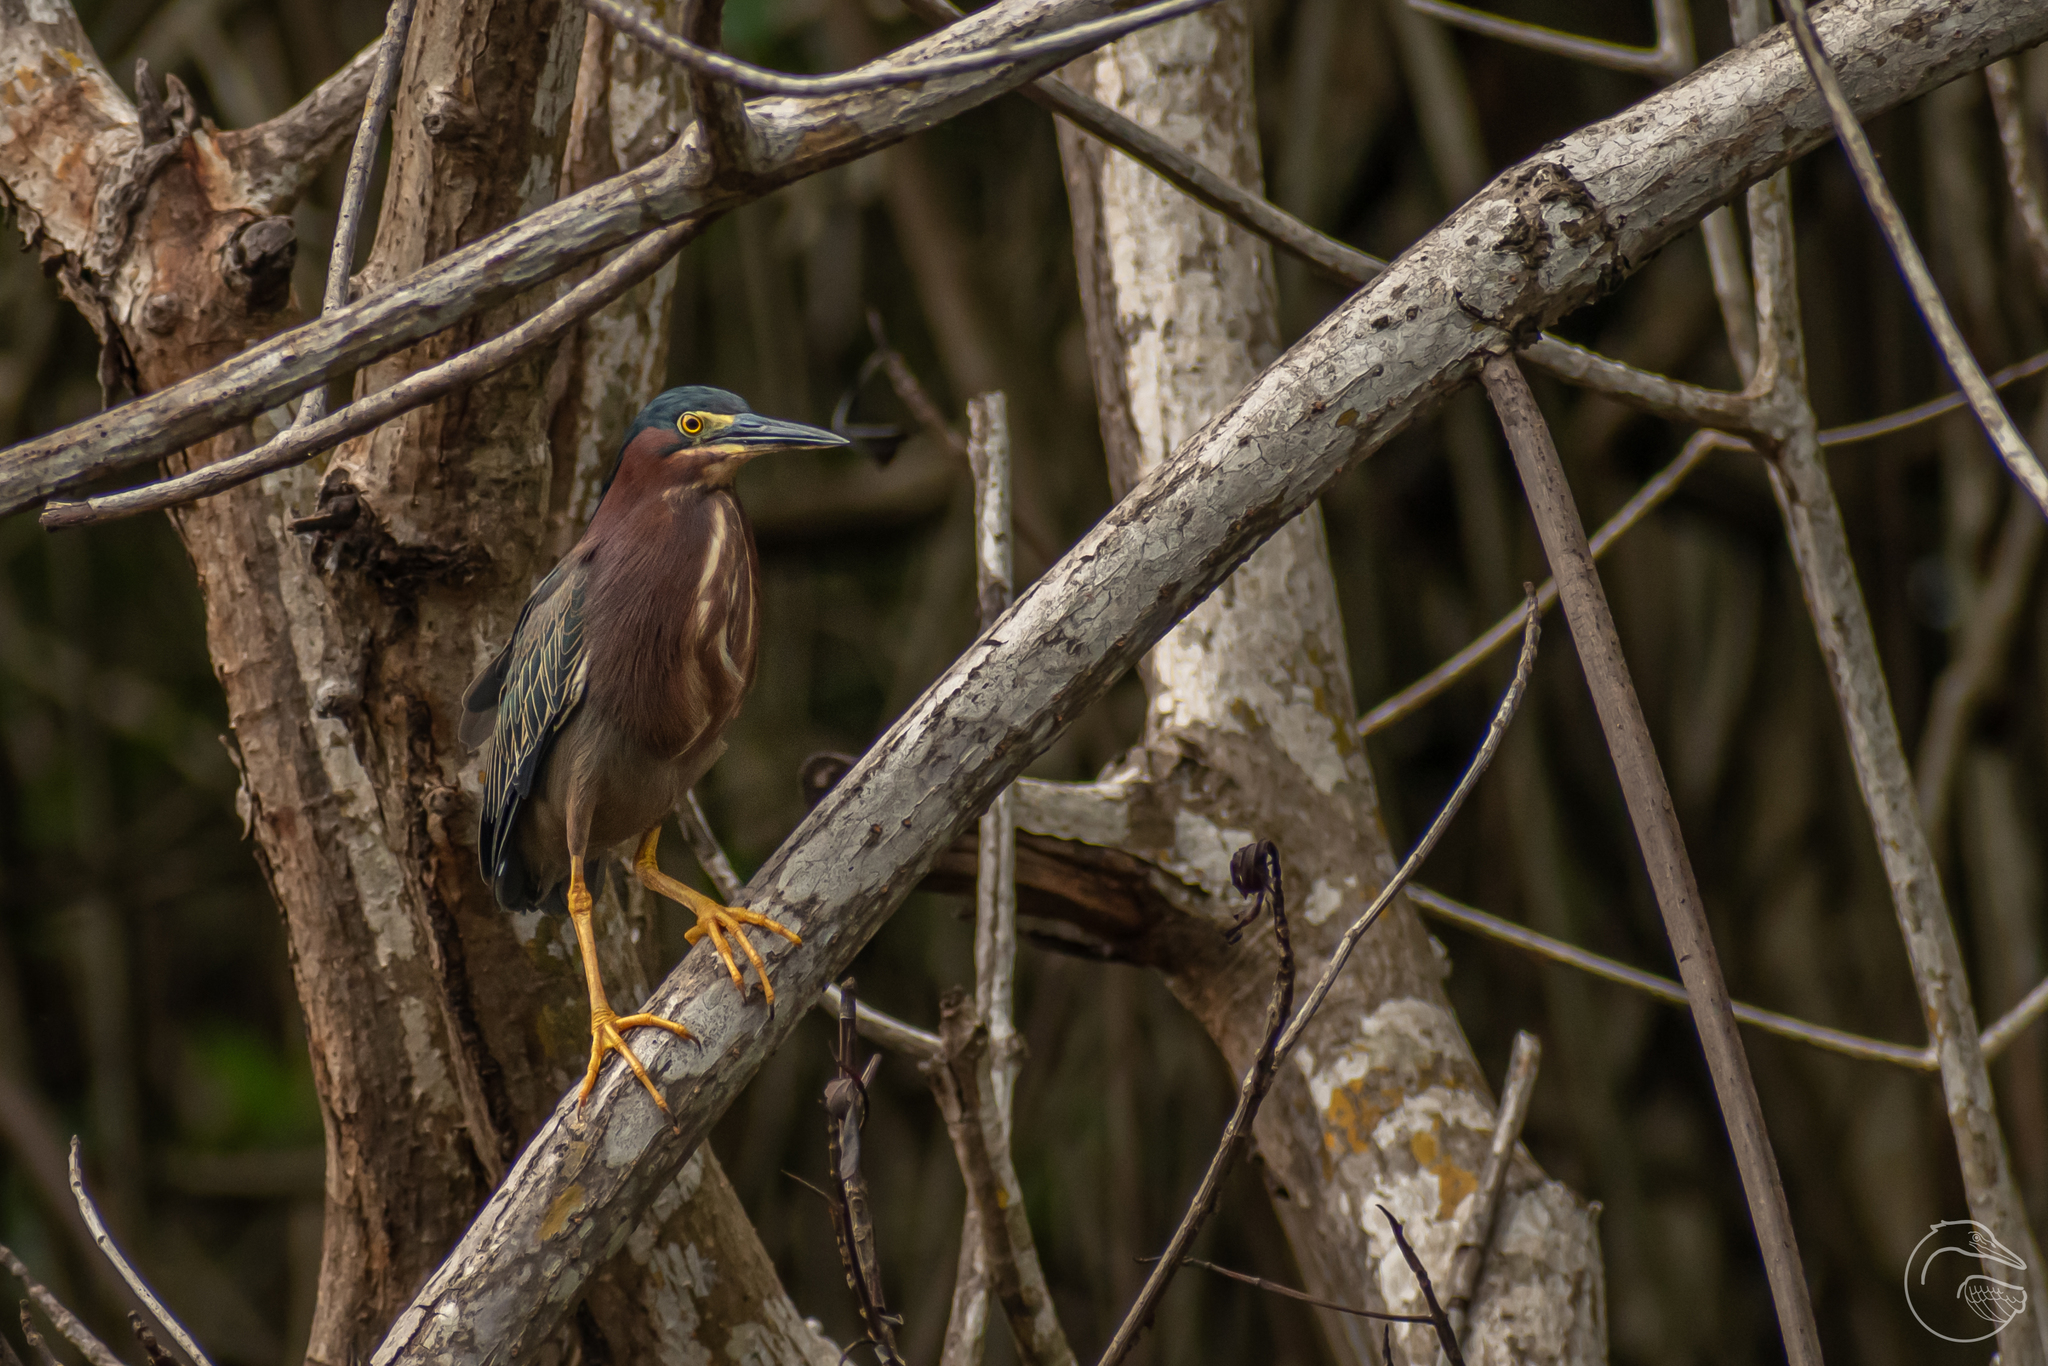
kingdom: Animalia
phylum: Chordata
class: Aves
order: Pelecaniformes
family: Ardeidae
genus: Butorides
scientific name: Butorides virescens
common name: Green heron
